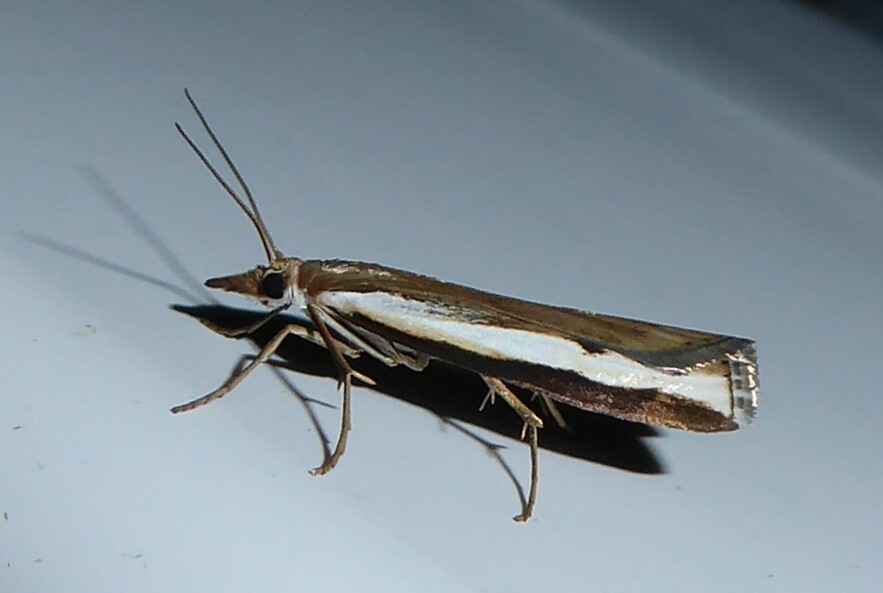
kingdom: Animalia
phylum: Arthropoda
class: Insecta
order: Lepidoptera
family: Crambidae
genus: Orocrambus
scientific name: Orocrambus flexuosellus
